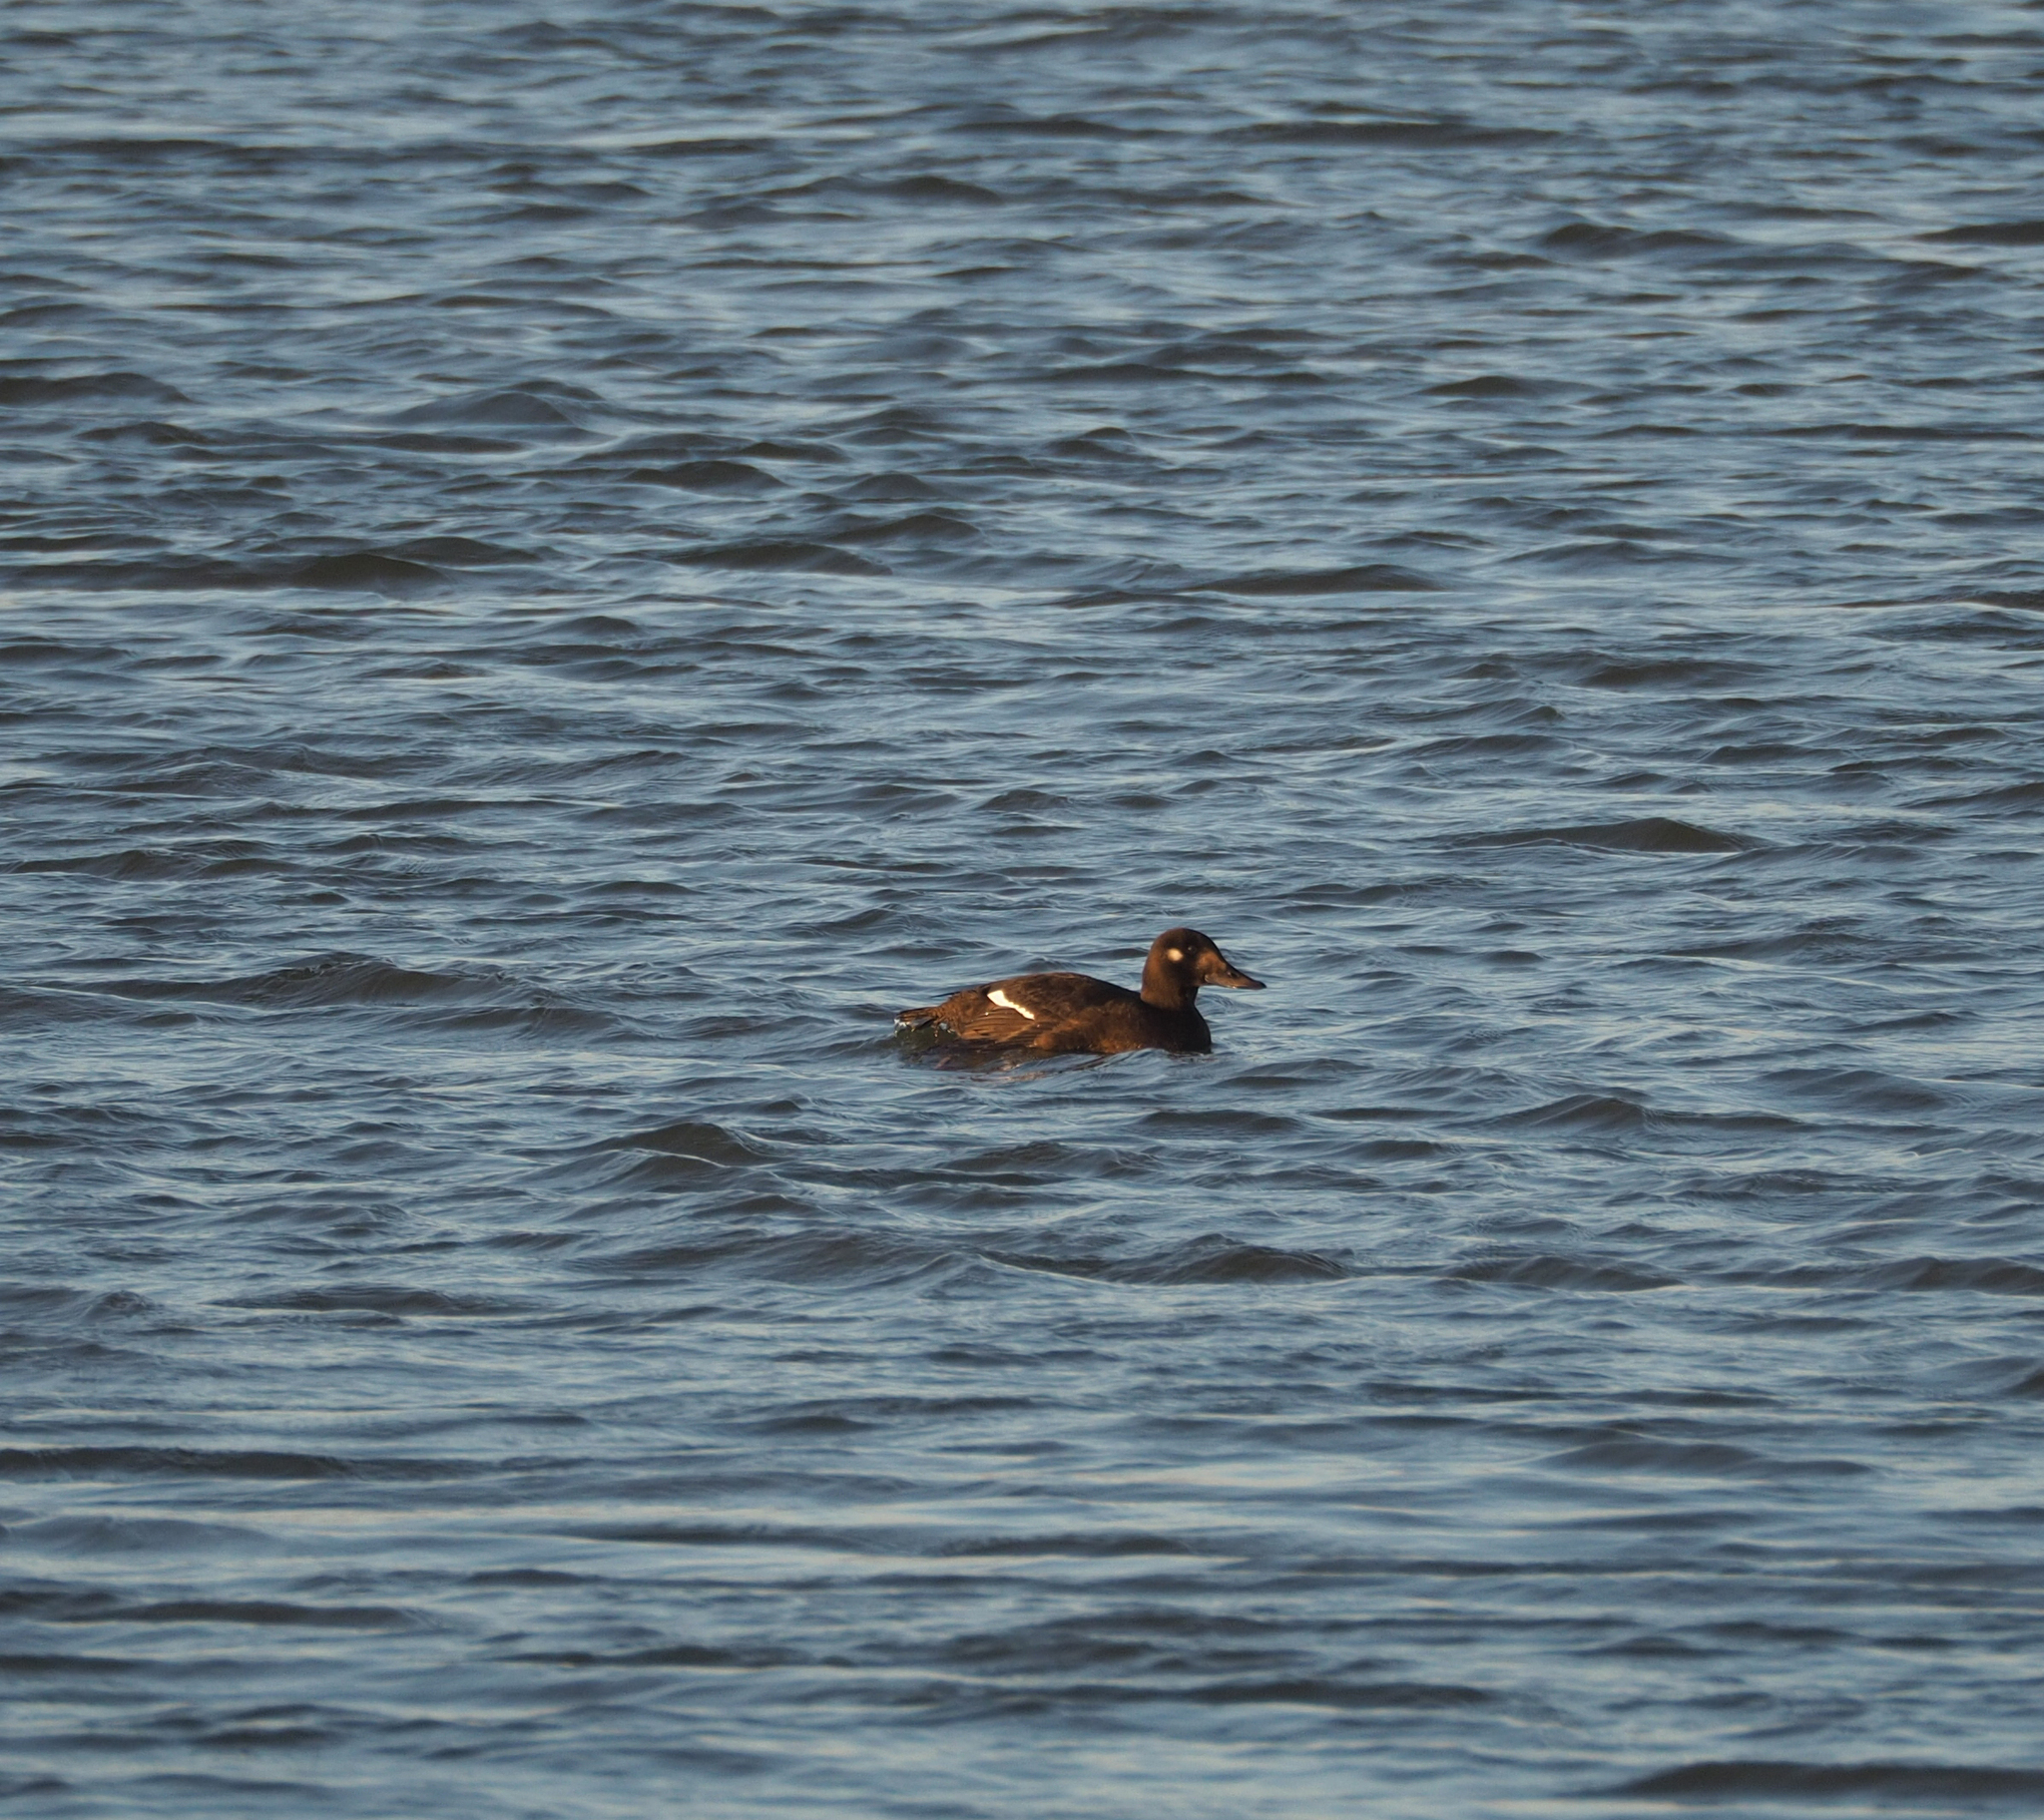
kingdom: Animalia
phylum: Chordata
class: Aves
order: Anseriformes
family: Anatidae
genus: Melanitta
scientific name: Melanitta fusca
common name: Velvet scoter
